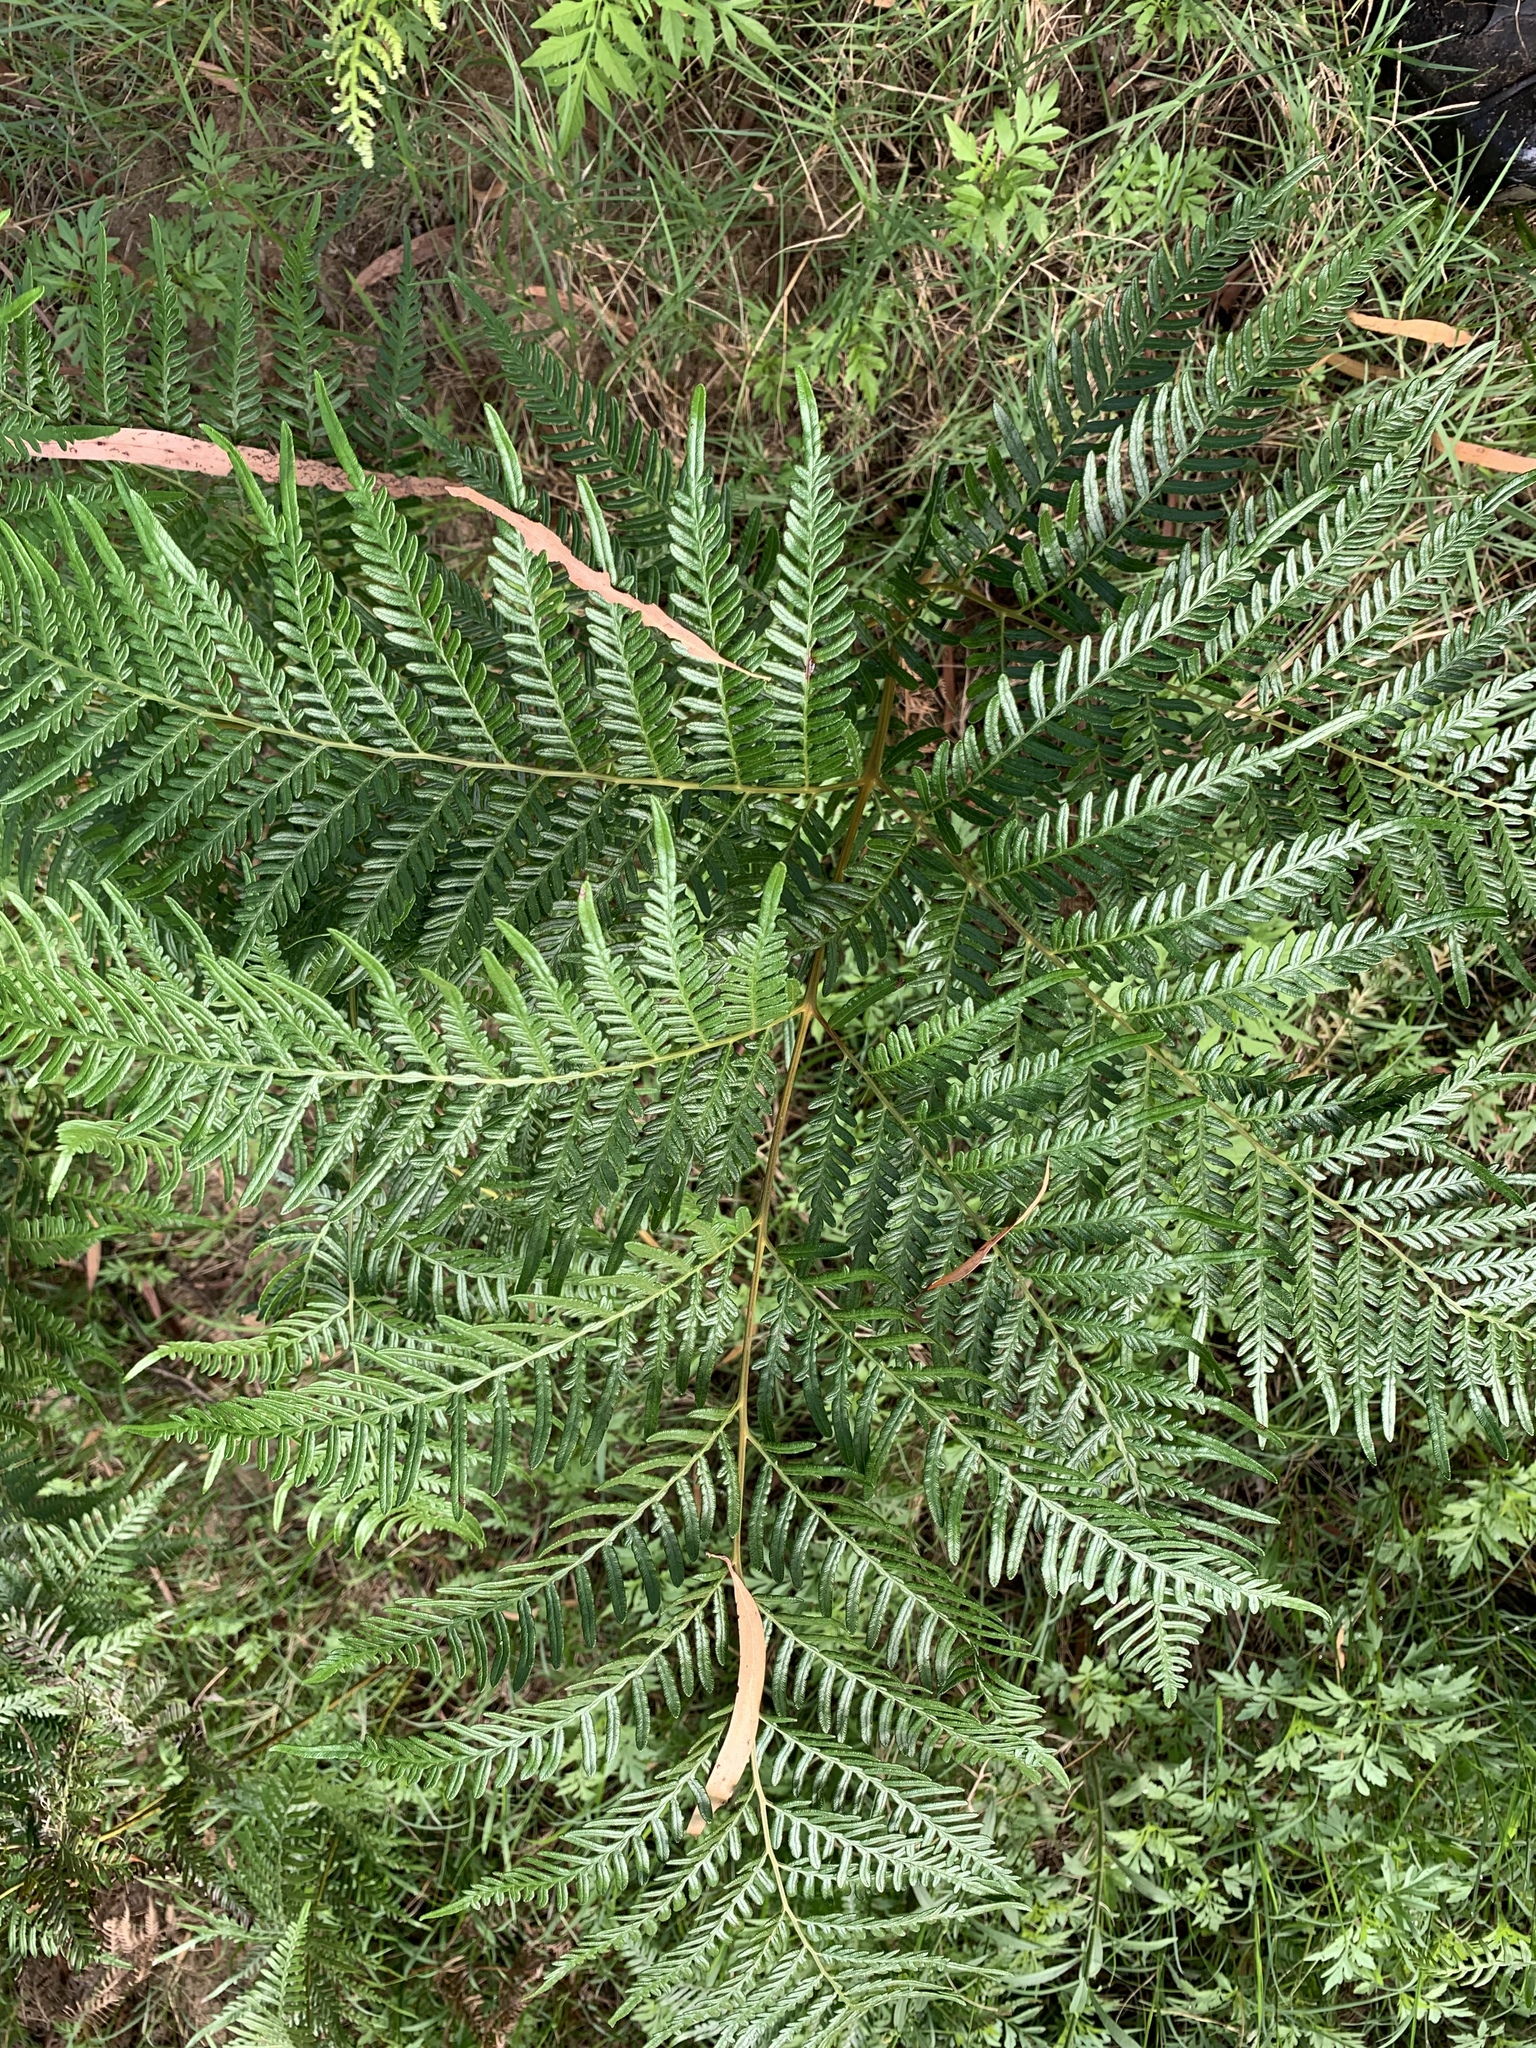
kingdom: Plantae
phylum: Tracheophyta
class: Polypodiopsida
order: Polypodiales
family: Dennstaedtiaceae
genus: Pteridium
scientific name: Pteridium esculentum
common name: Bracken fern
